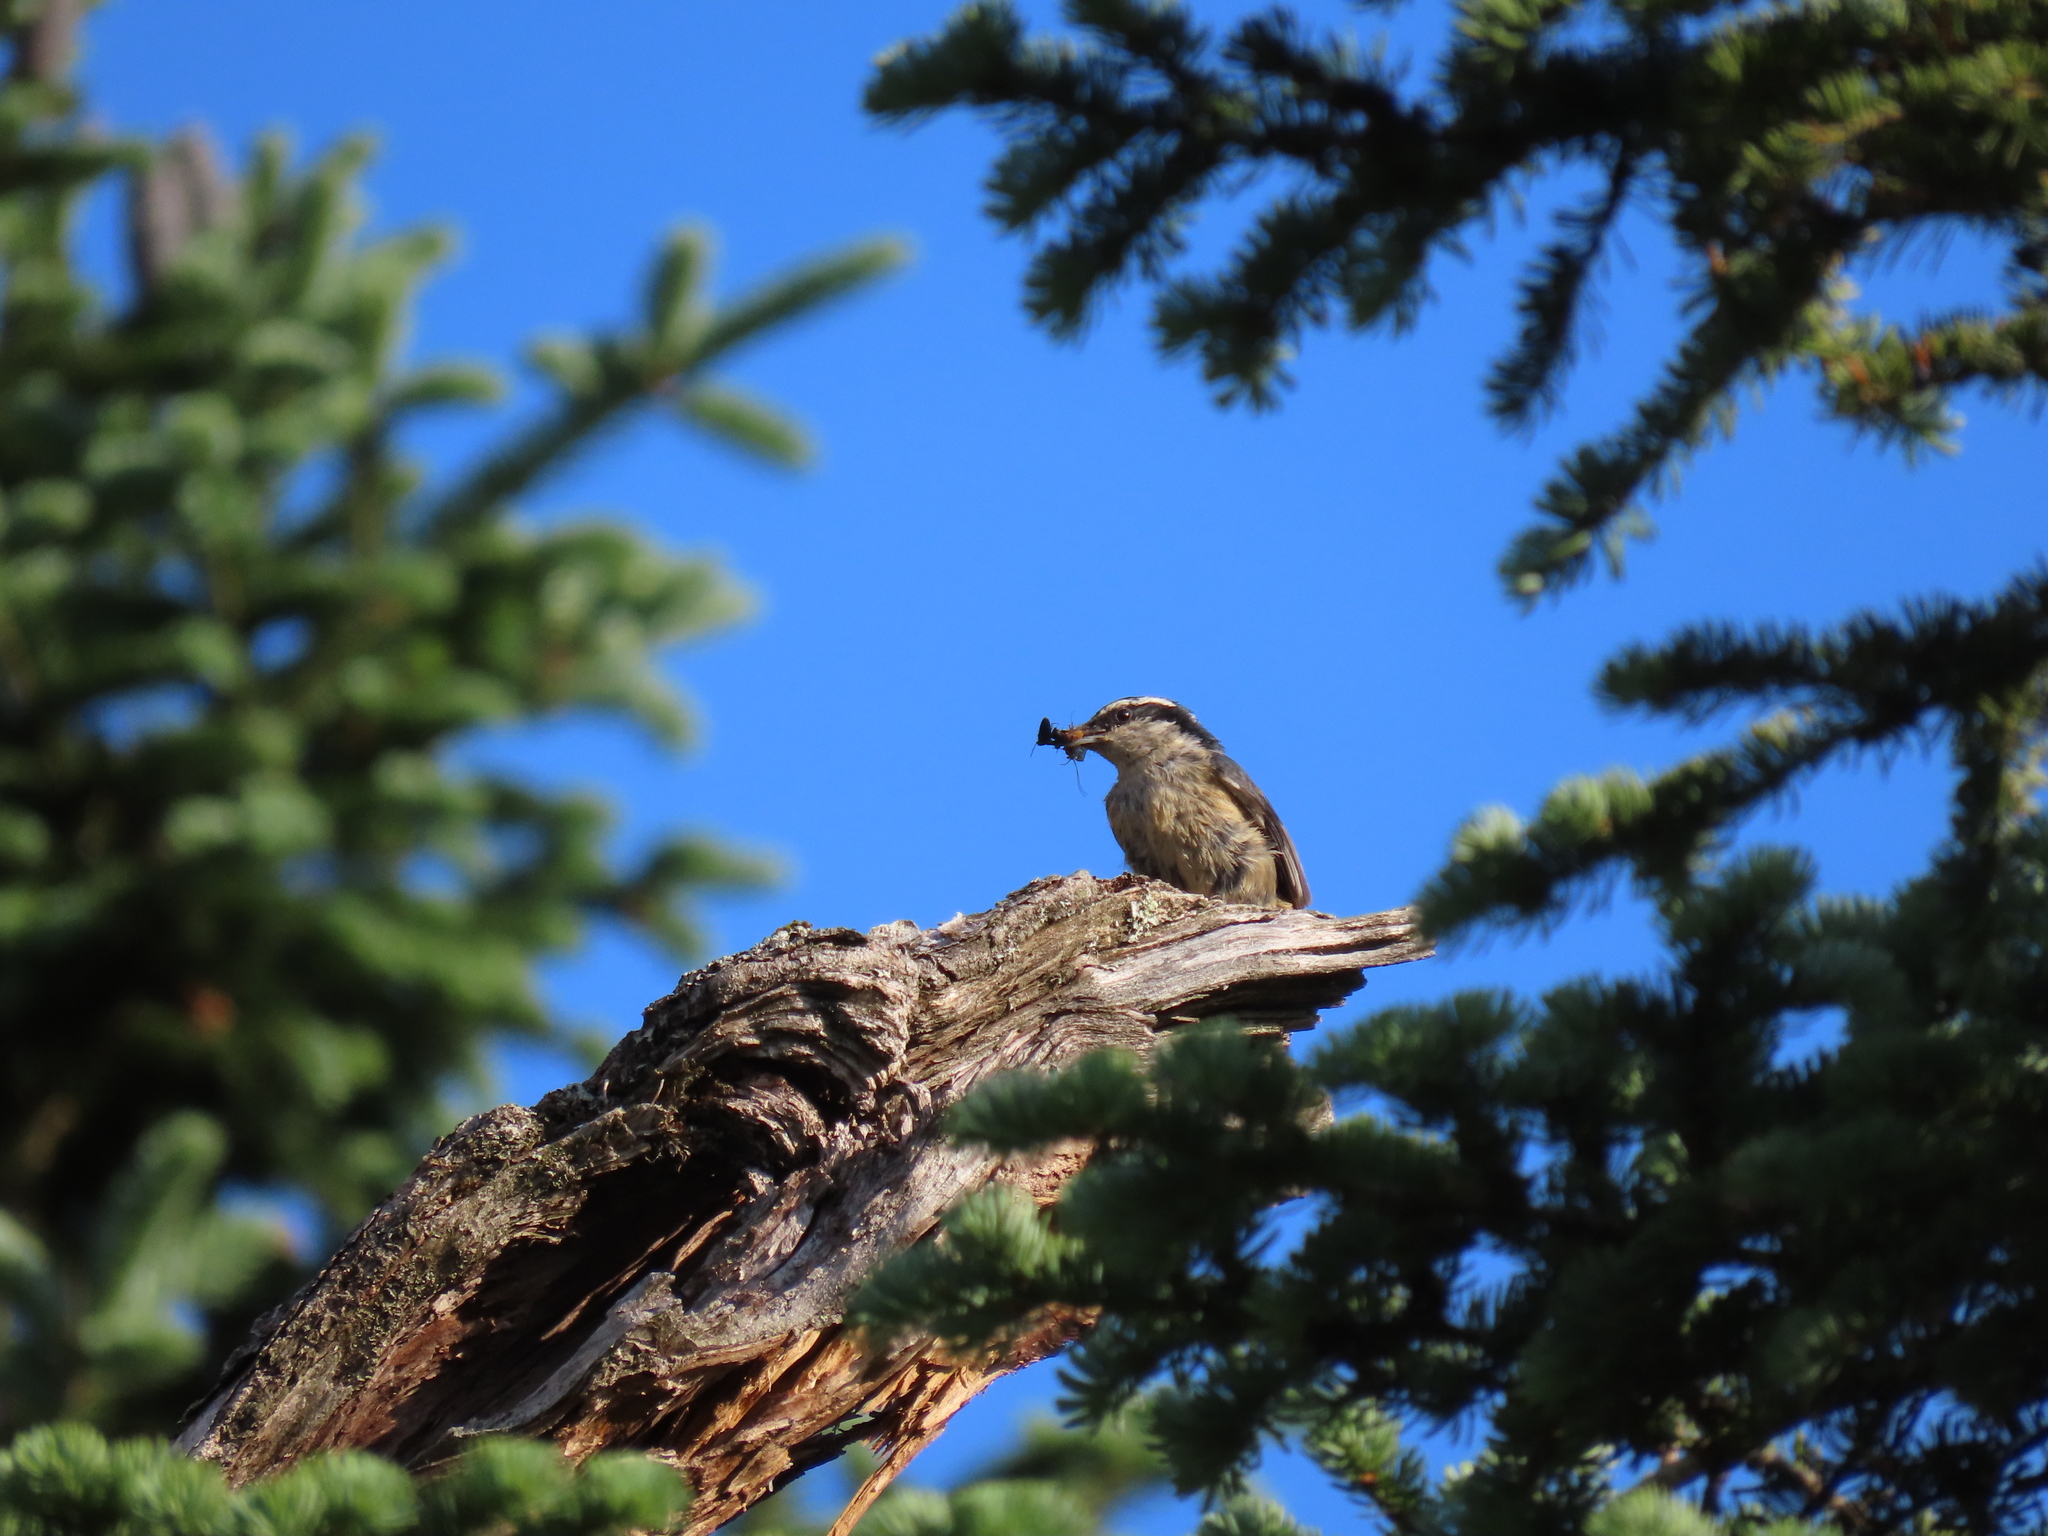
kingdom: Animalia
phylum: Chordata
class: Aves
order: Passeriformes
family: Sittidae
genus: Sitta
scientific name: Sitta canadensis
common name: Red-breasted nuthatch
